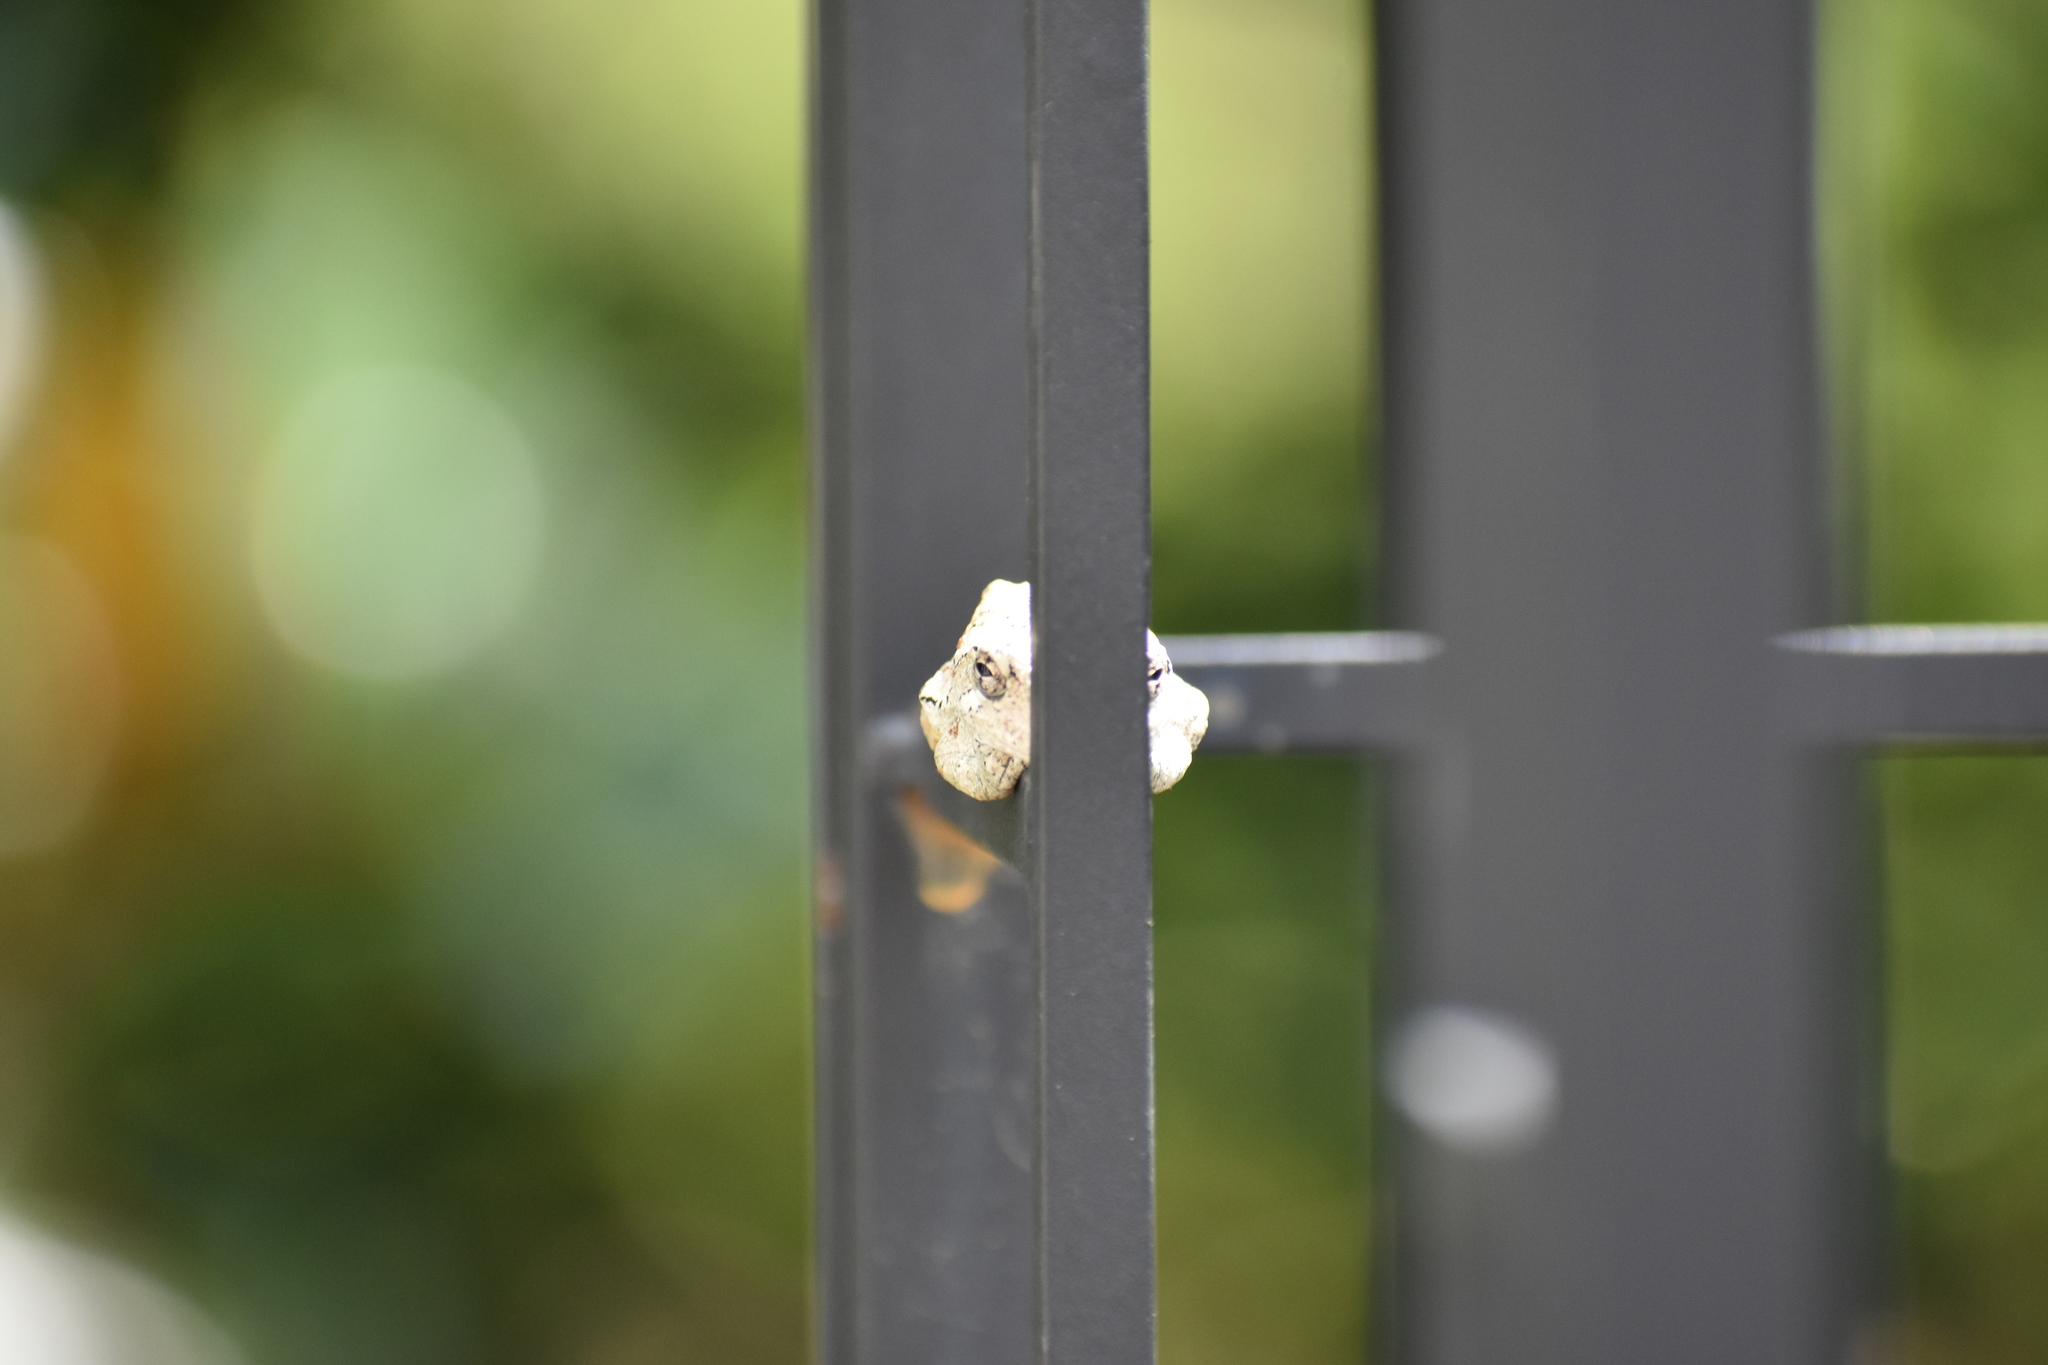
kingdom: Animalia
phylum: Chordata
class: Amphibia
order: Anura
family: Hylidae
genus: Dryophytes
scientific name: Dryophytes versicolor
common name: Gray treefrog
